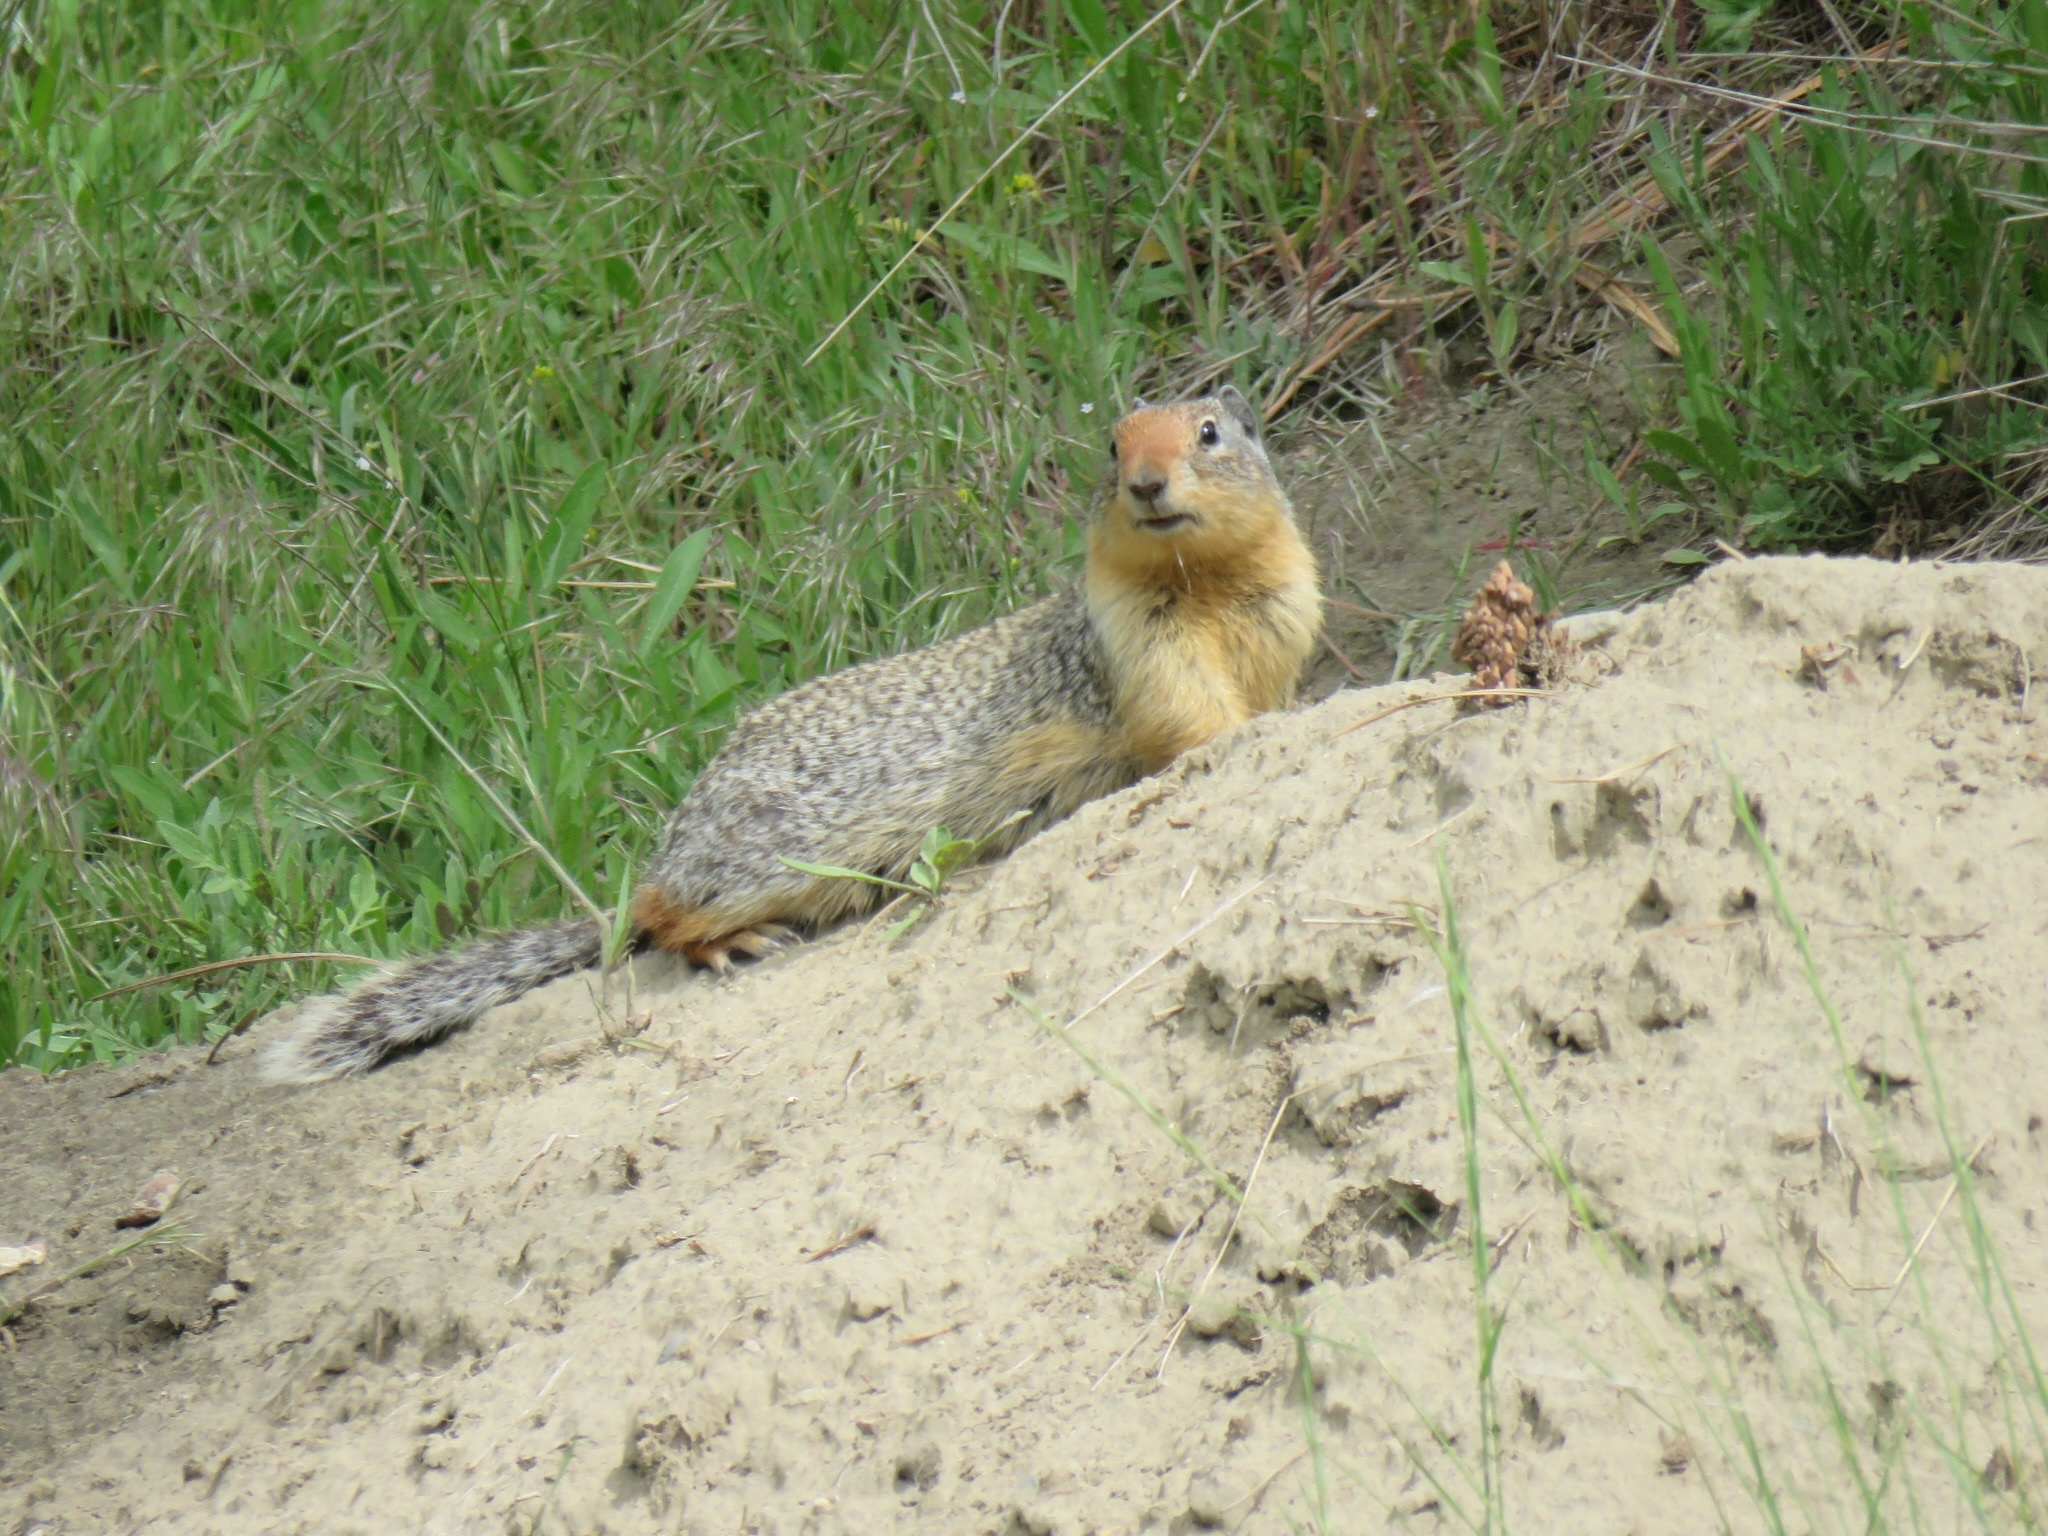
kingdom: Animalia
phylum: Chordata
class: Mammalia
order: Rodentia
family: Sciuridae
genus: Urocitellus
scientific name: Urocitellus columbianus
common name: Columbian ground squirrel
